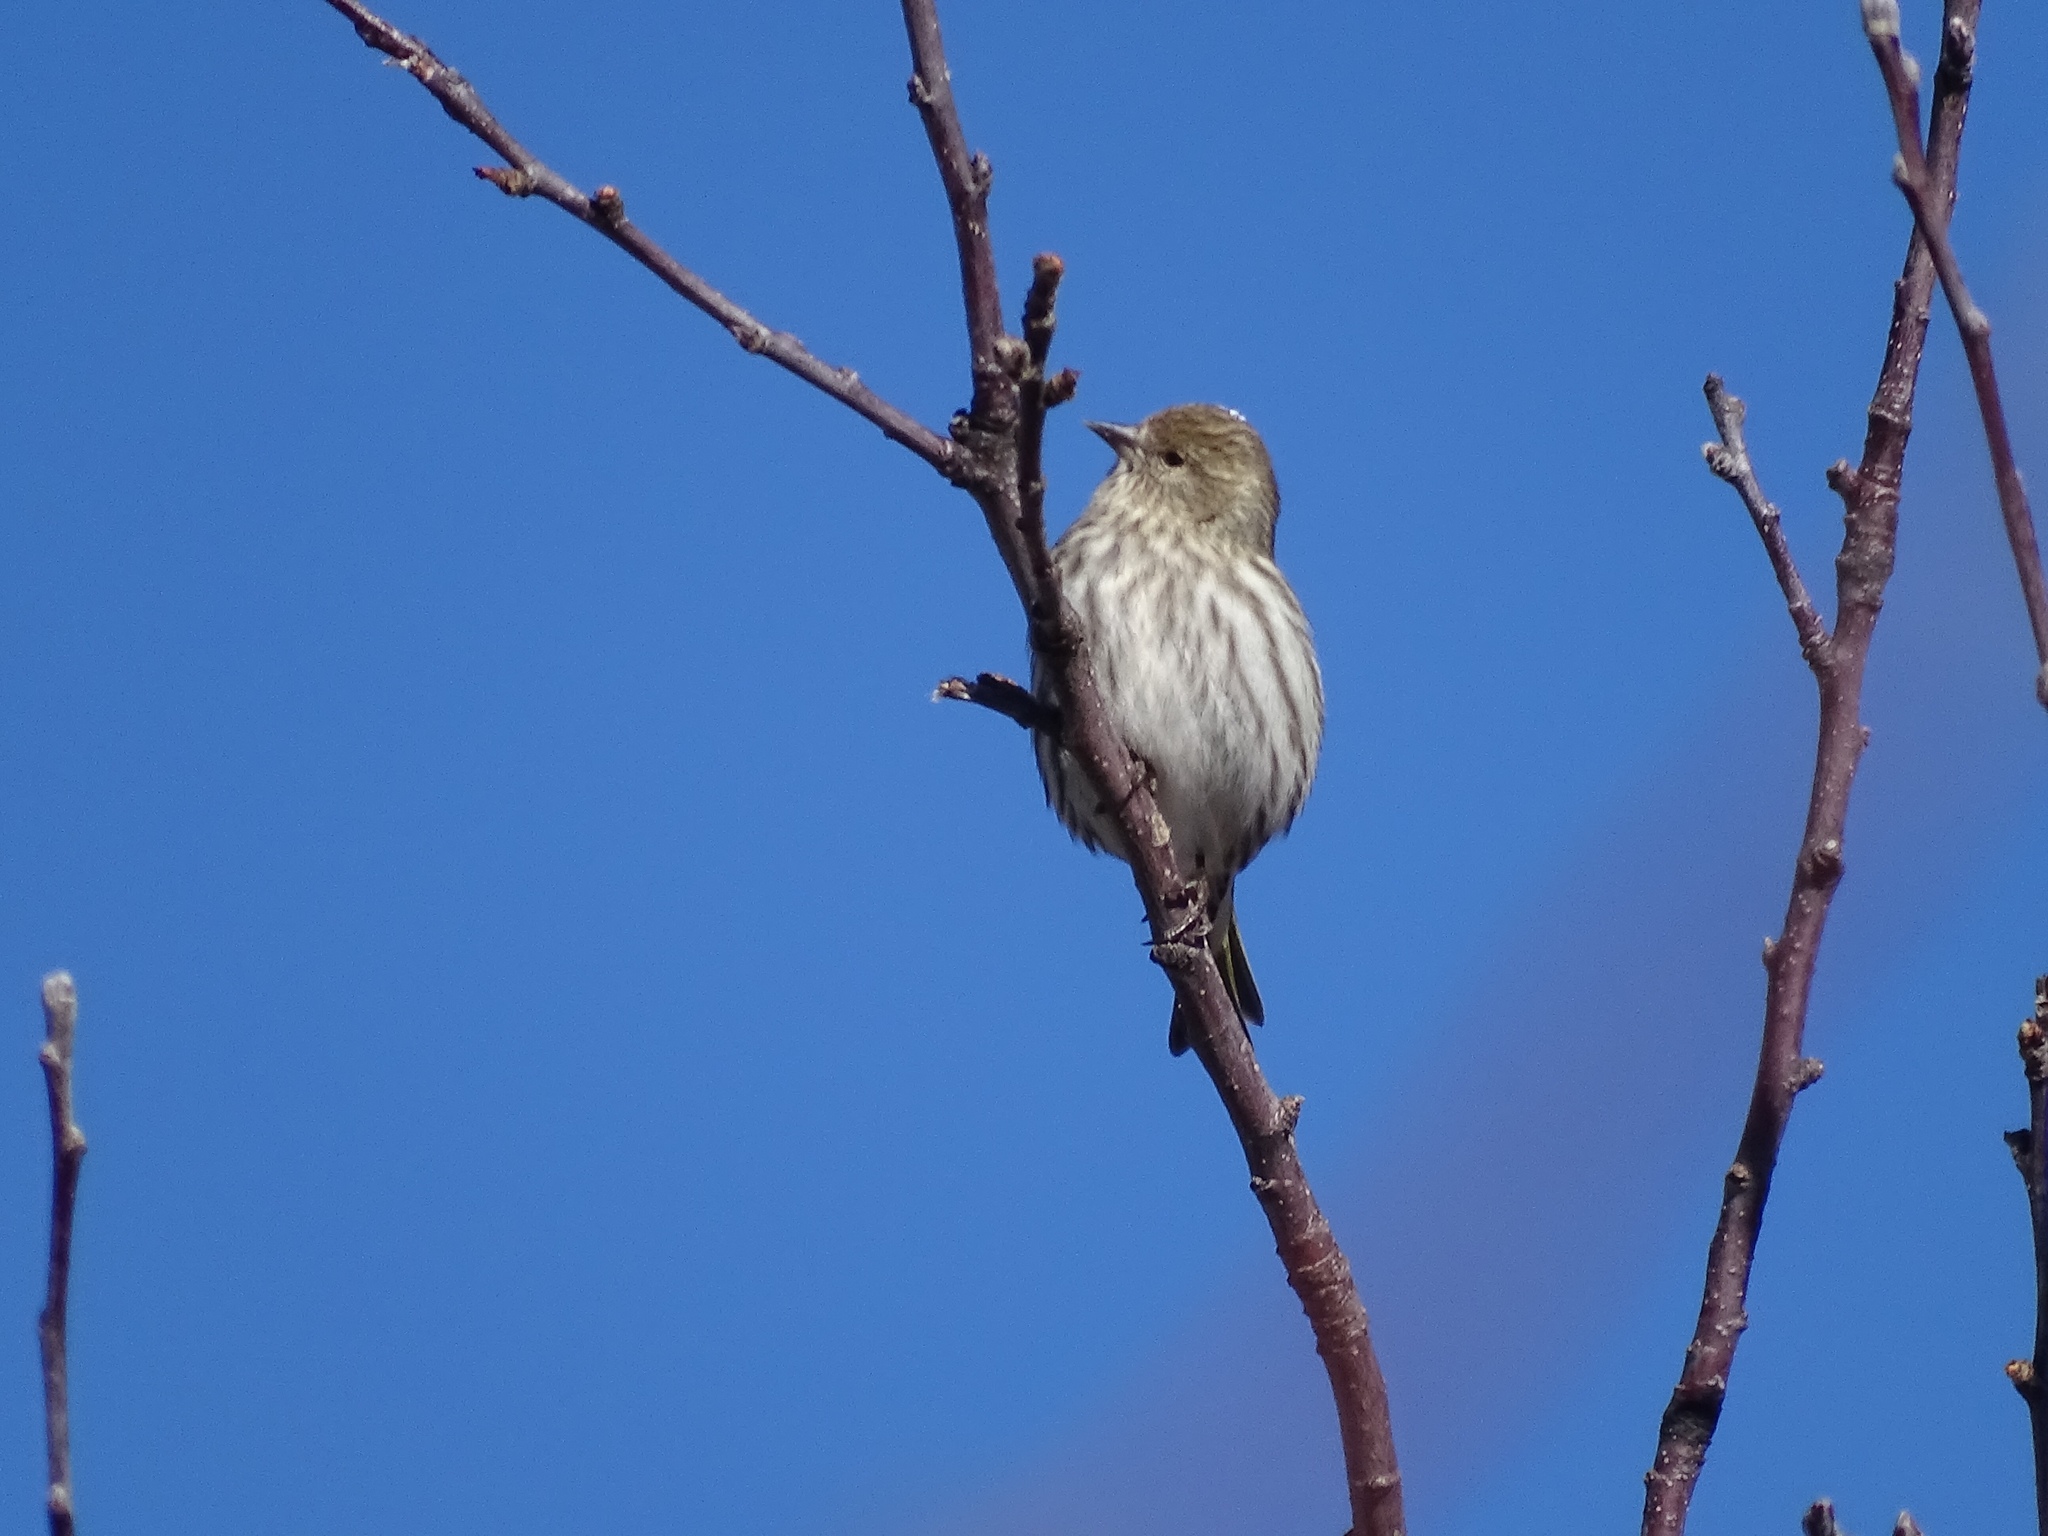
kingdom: Animalia
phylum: Chordata
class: Aves
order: Passeriformes
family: Fringillidae
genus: Spinus
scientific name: Spinus pinus
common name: Pine siskin
